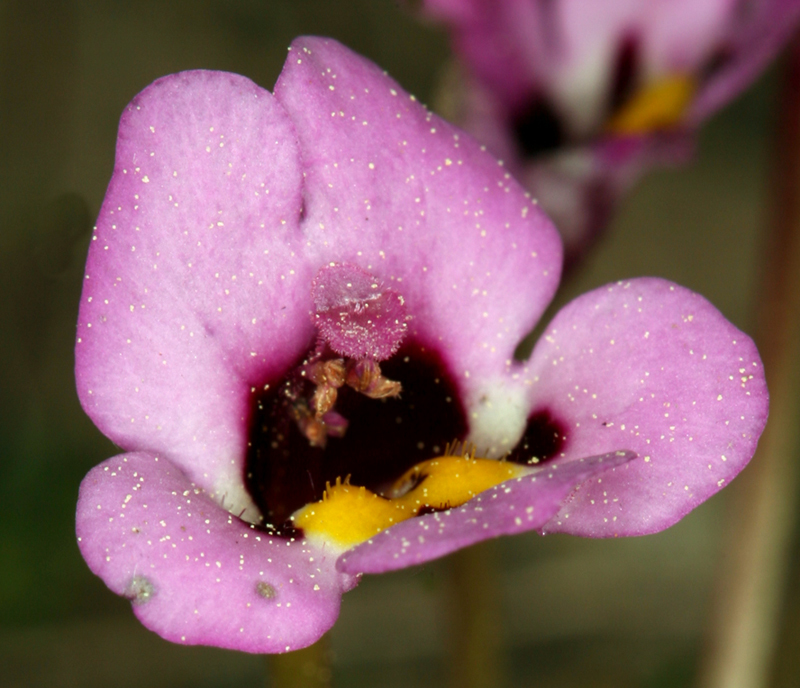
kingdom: Plantae
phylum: Tracheophyta
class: Magnoliopsida
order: Lamiales
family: Phrymaceae
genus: Diplacus
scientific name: Diplacus angustatus
